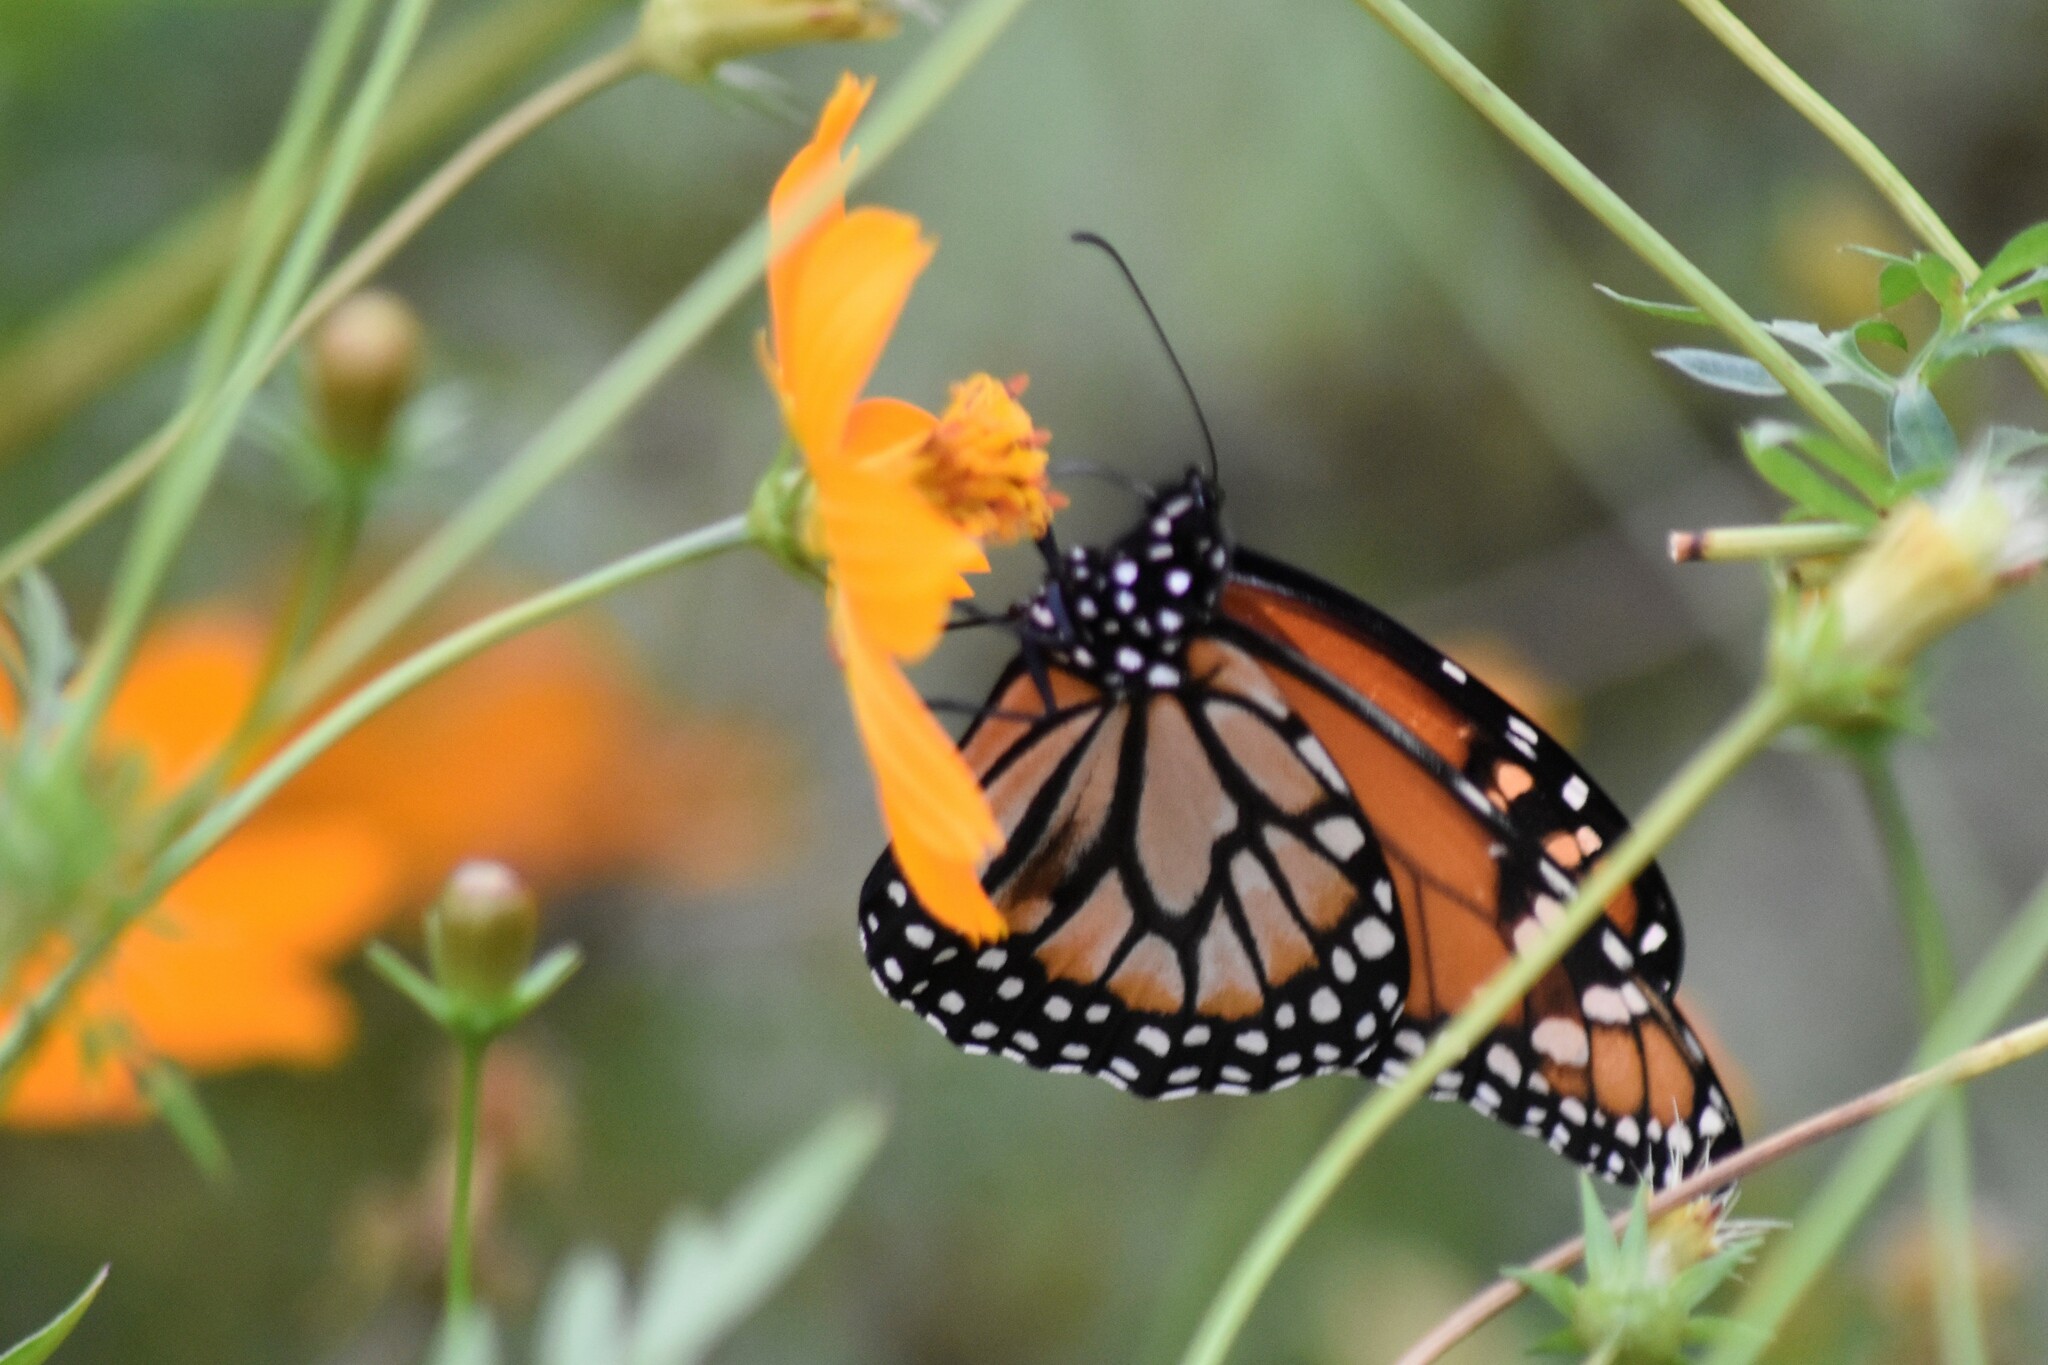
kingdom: Animalia
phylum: Arthropoda
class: Insecta
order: Lepidoptera
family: Nymphalidae
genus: Danaus
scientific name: Danaus erippus
